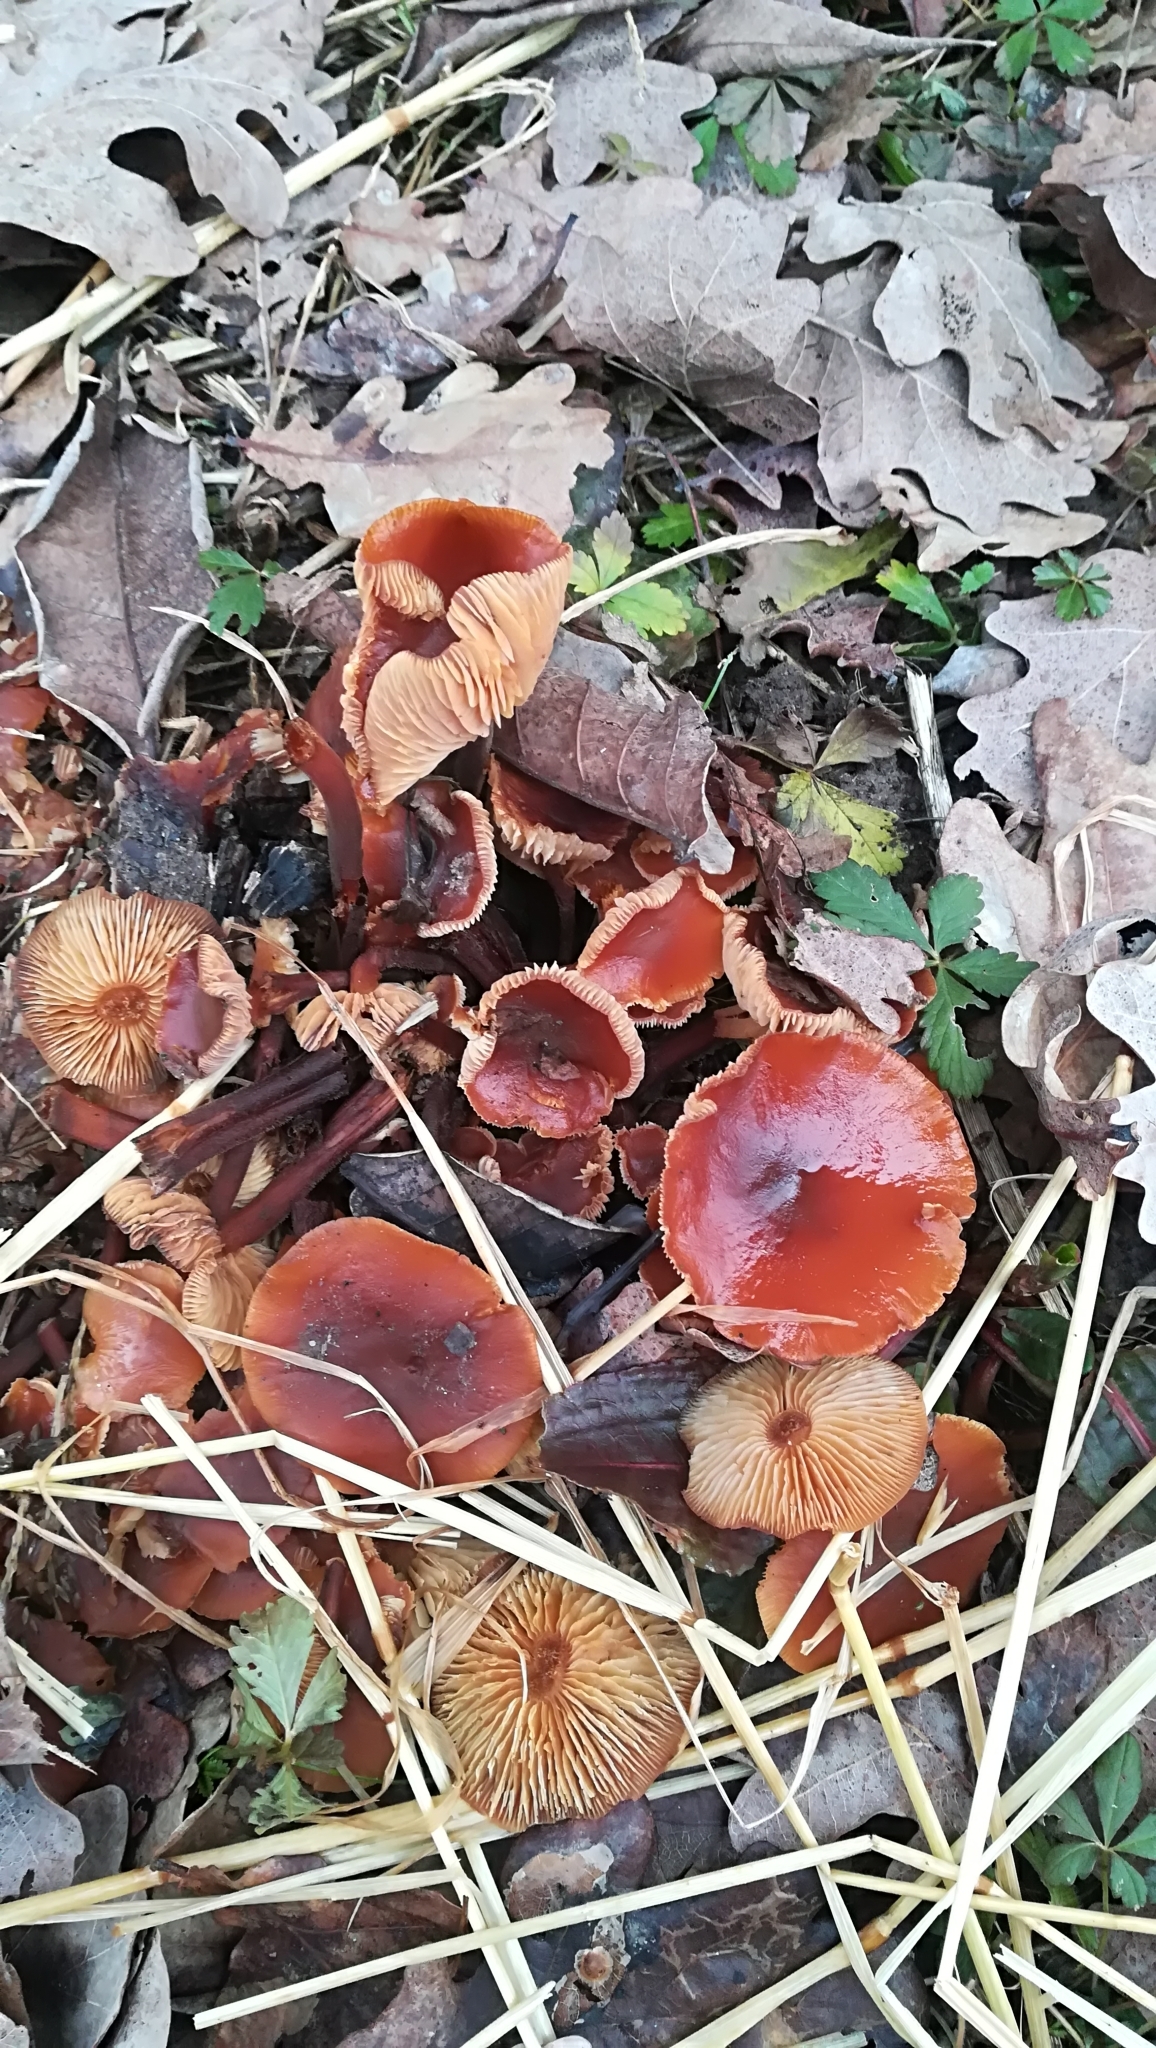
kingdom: Fungi
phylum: Basidiomycota
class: Agaricomycetes
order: Agaricales
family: Physalacriaceae
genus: Flammulina
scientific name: Flammulina
